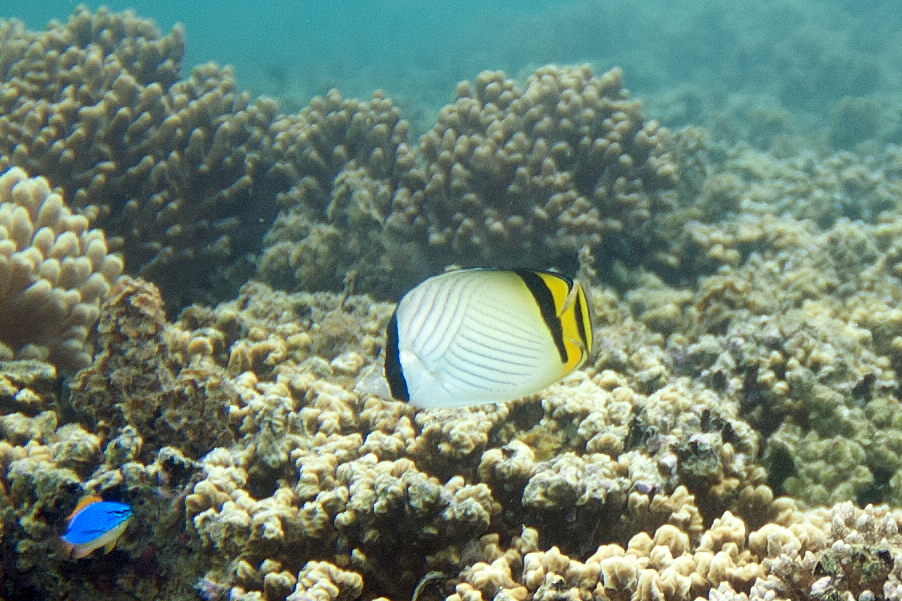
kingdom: Animalia
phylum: Chordata
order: Perciformes
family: Chaetodontidae
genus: Chaetodon
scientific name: Chaetodon vagabundus
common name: Vagabond butterflyfish
